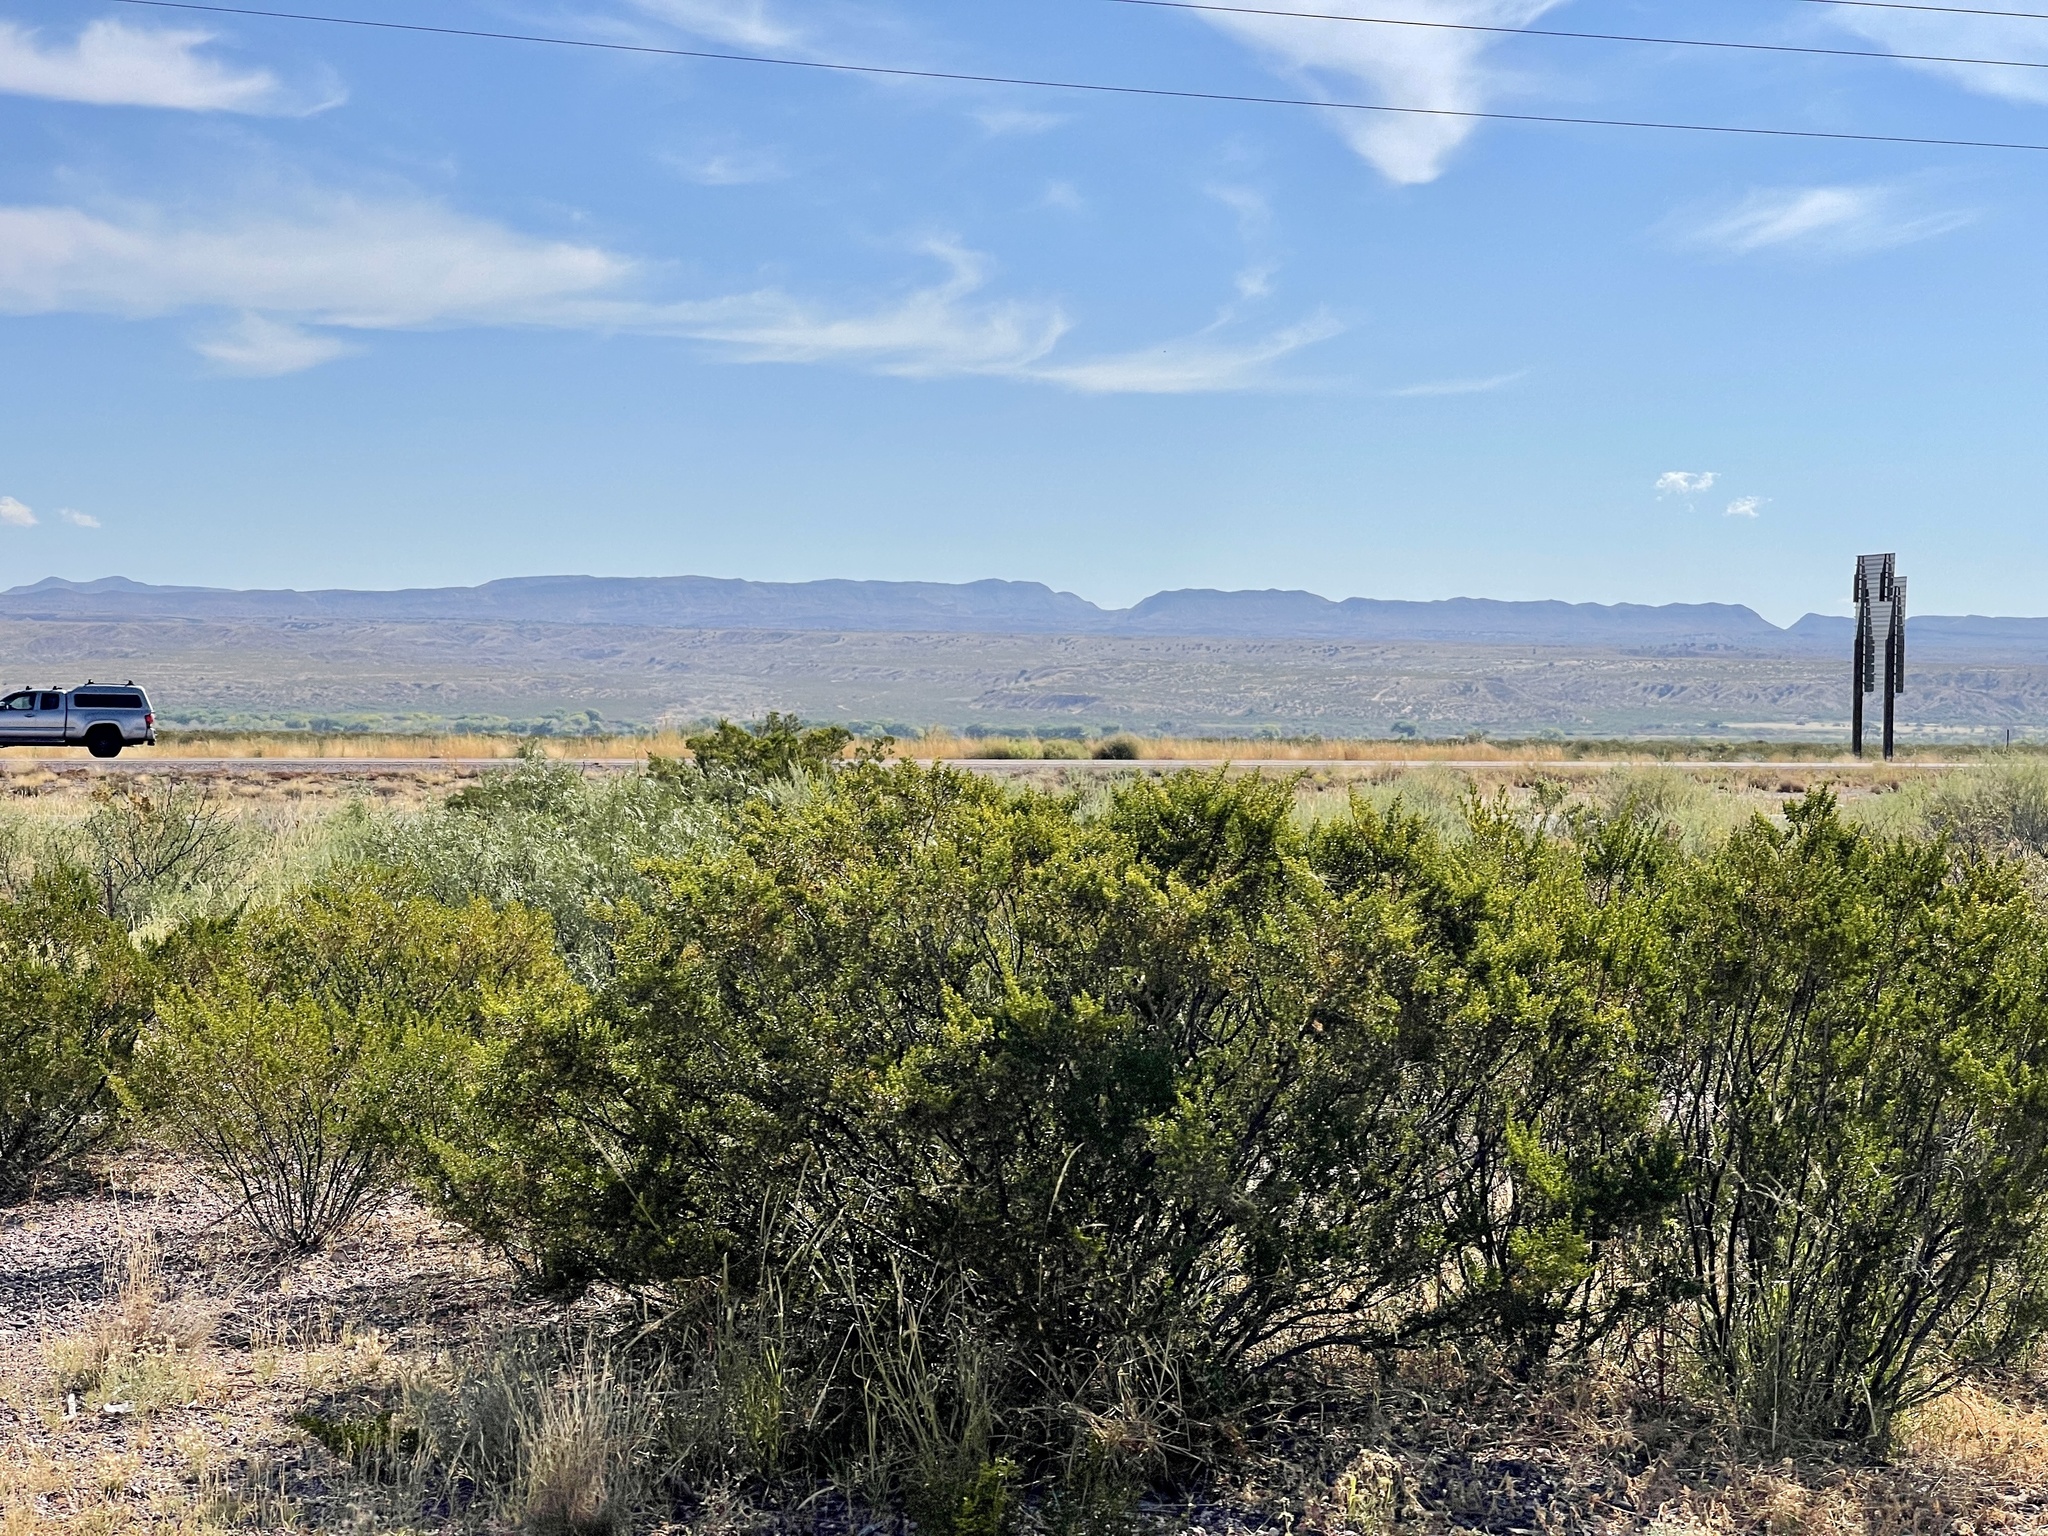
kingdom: Plantae
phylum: Tracheophyta
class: Magnoliopsida
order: Zygophyllales
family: Zygophyllaceae
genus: Larrea
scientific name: Larrea tridentata
